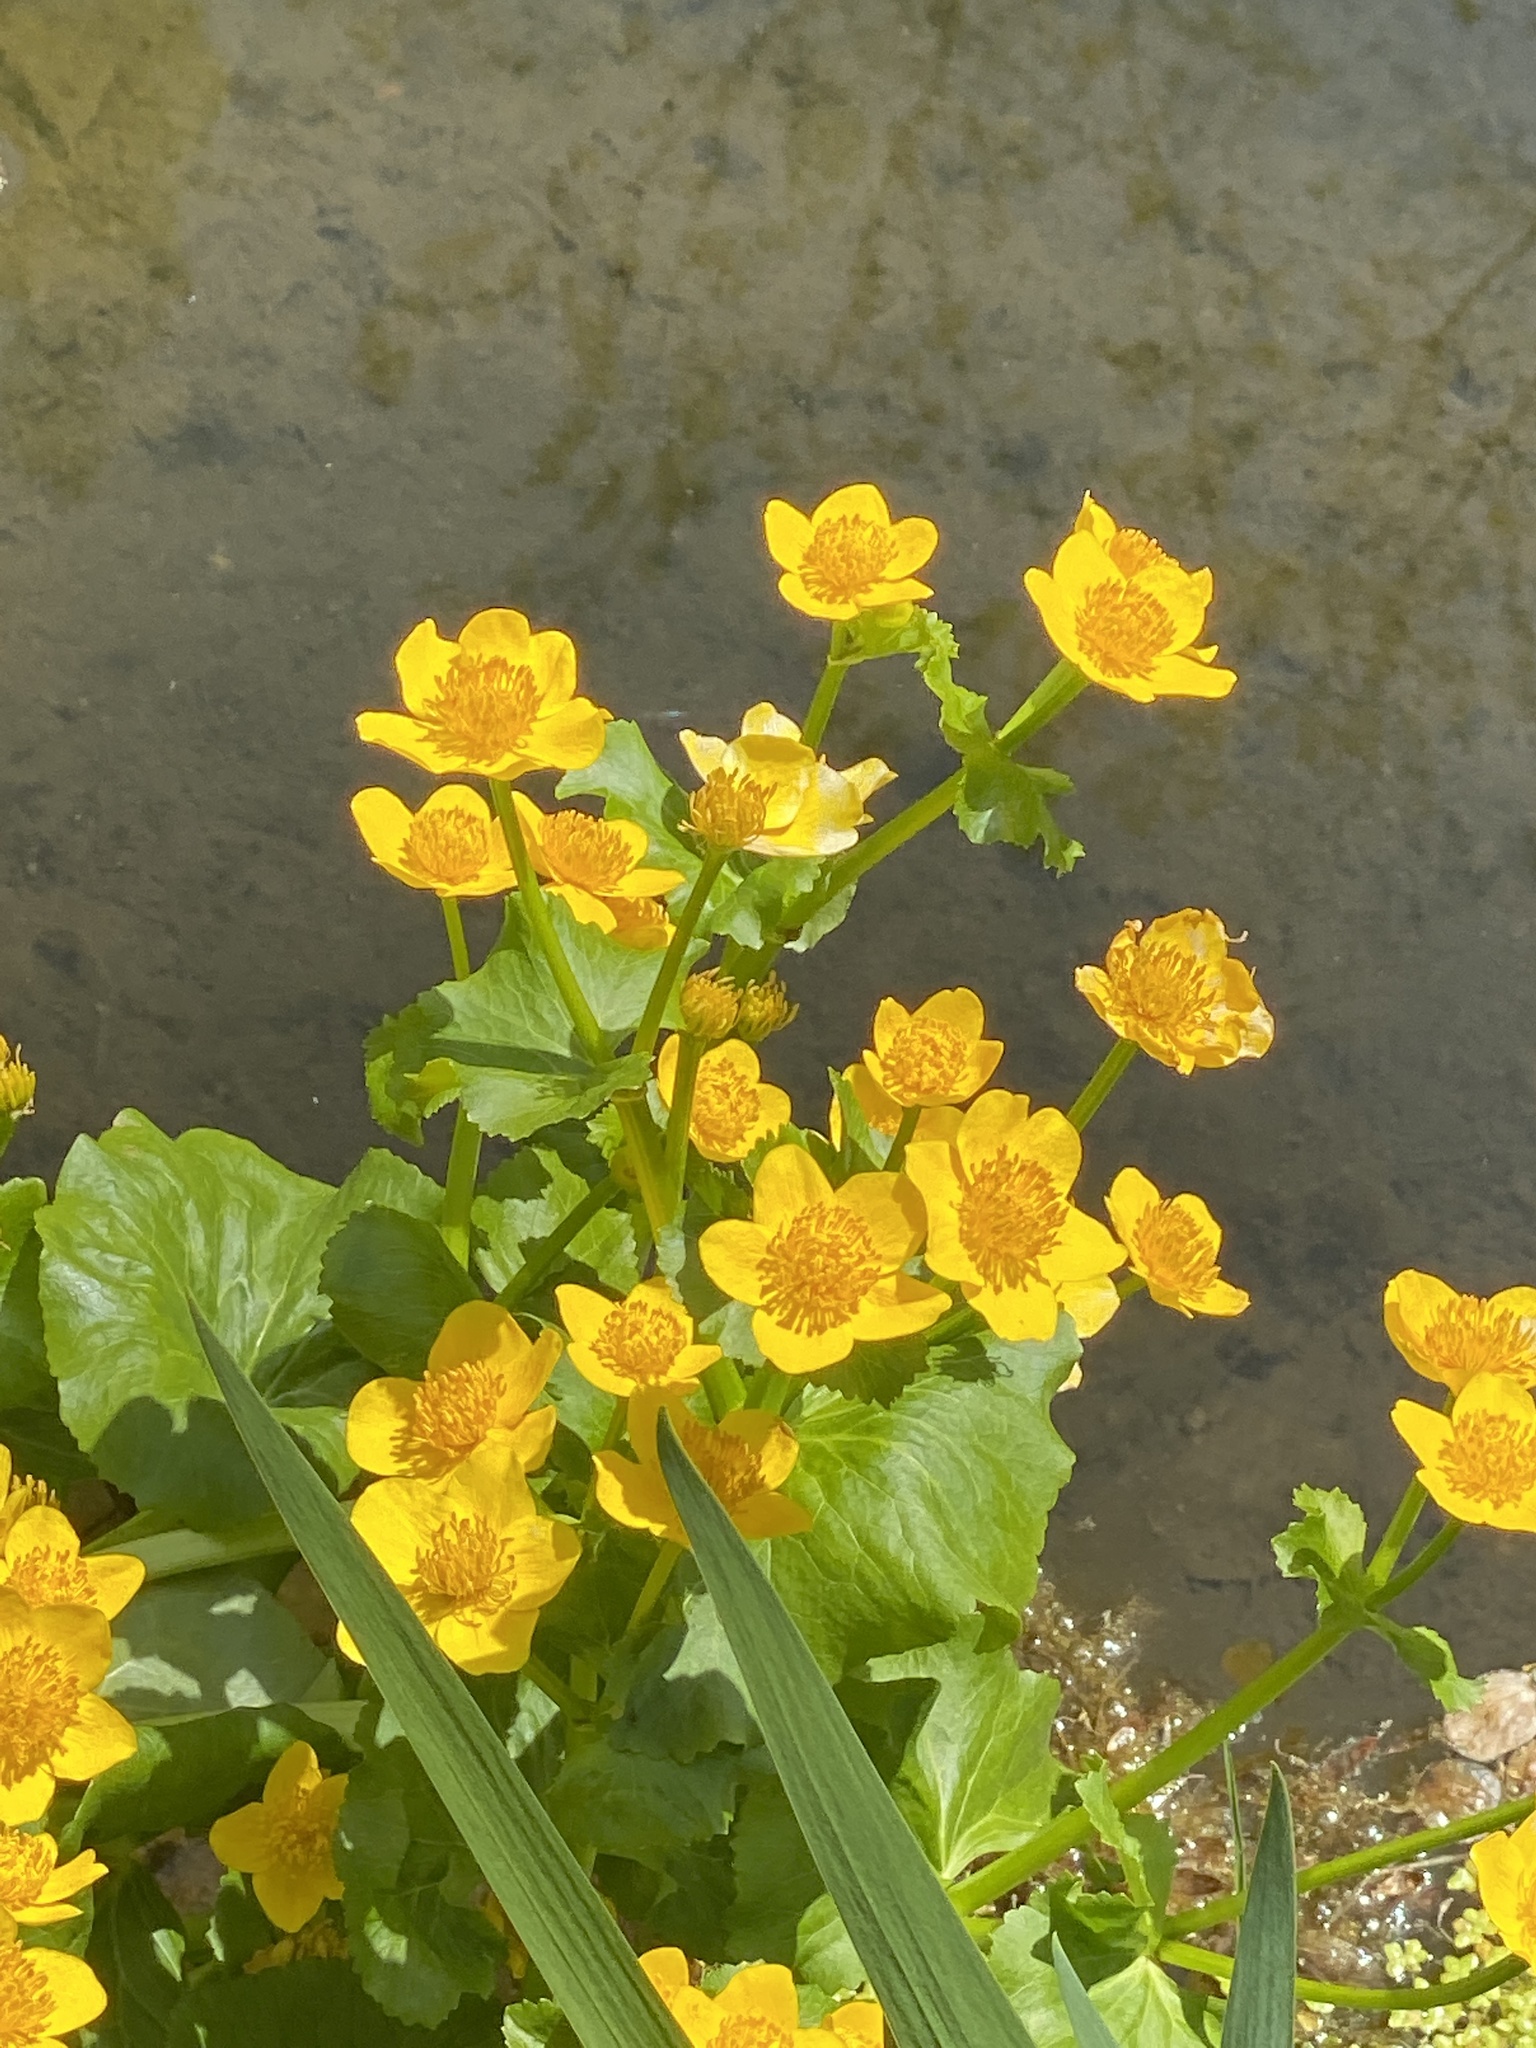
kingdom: Plantae
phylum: Tracheophyta
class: Magnoliopsida
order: Ranunculales
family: Ranunculaceae
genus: Caltha
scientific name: Caltha palustris
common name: Marsh marigold
